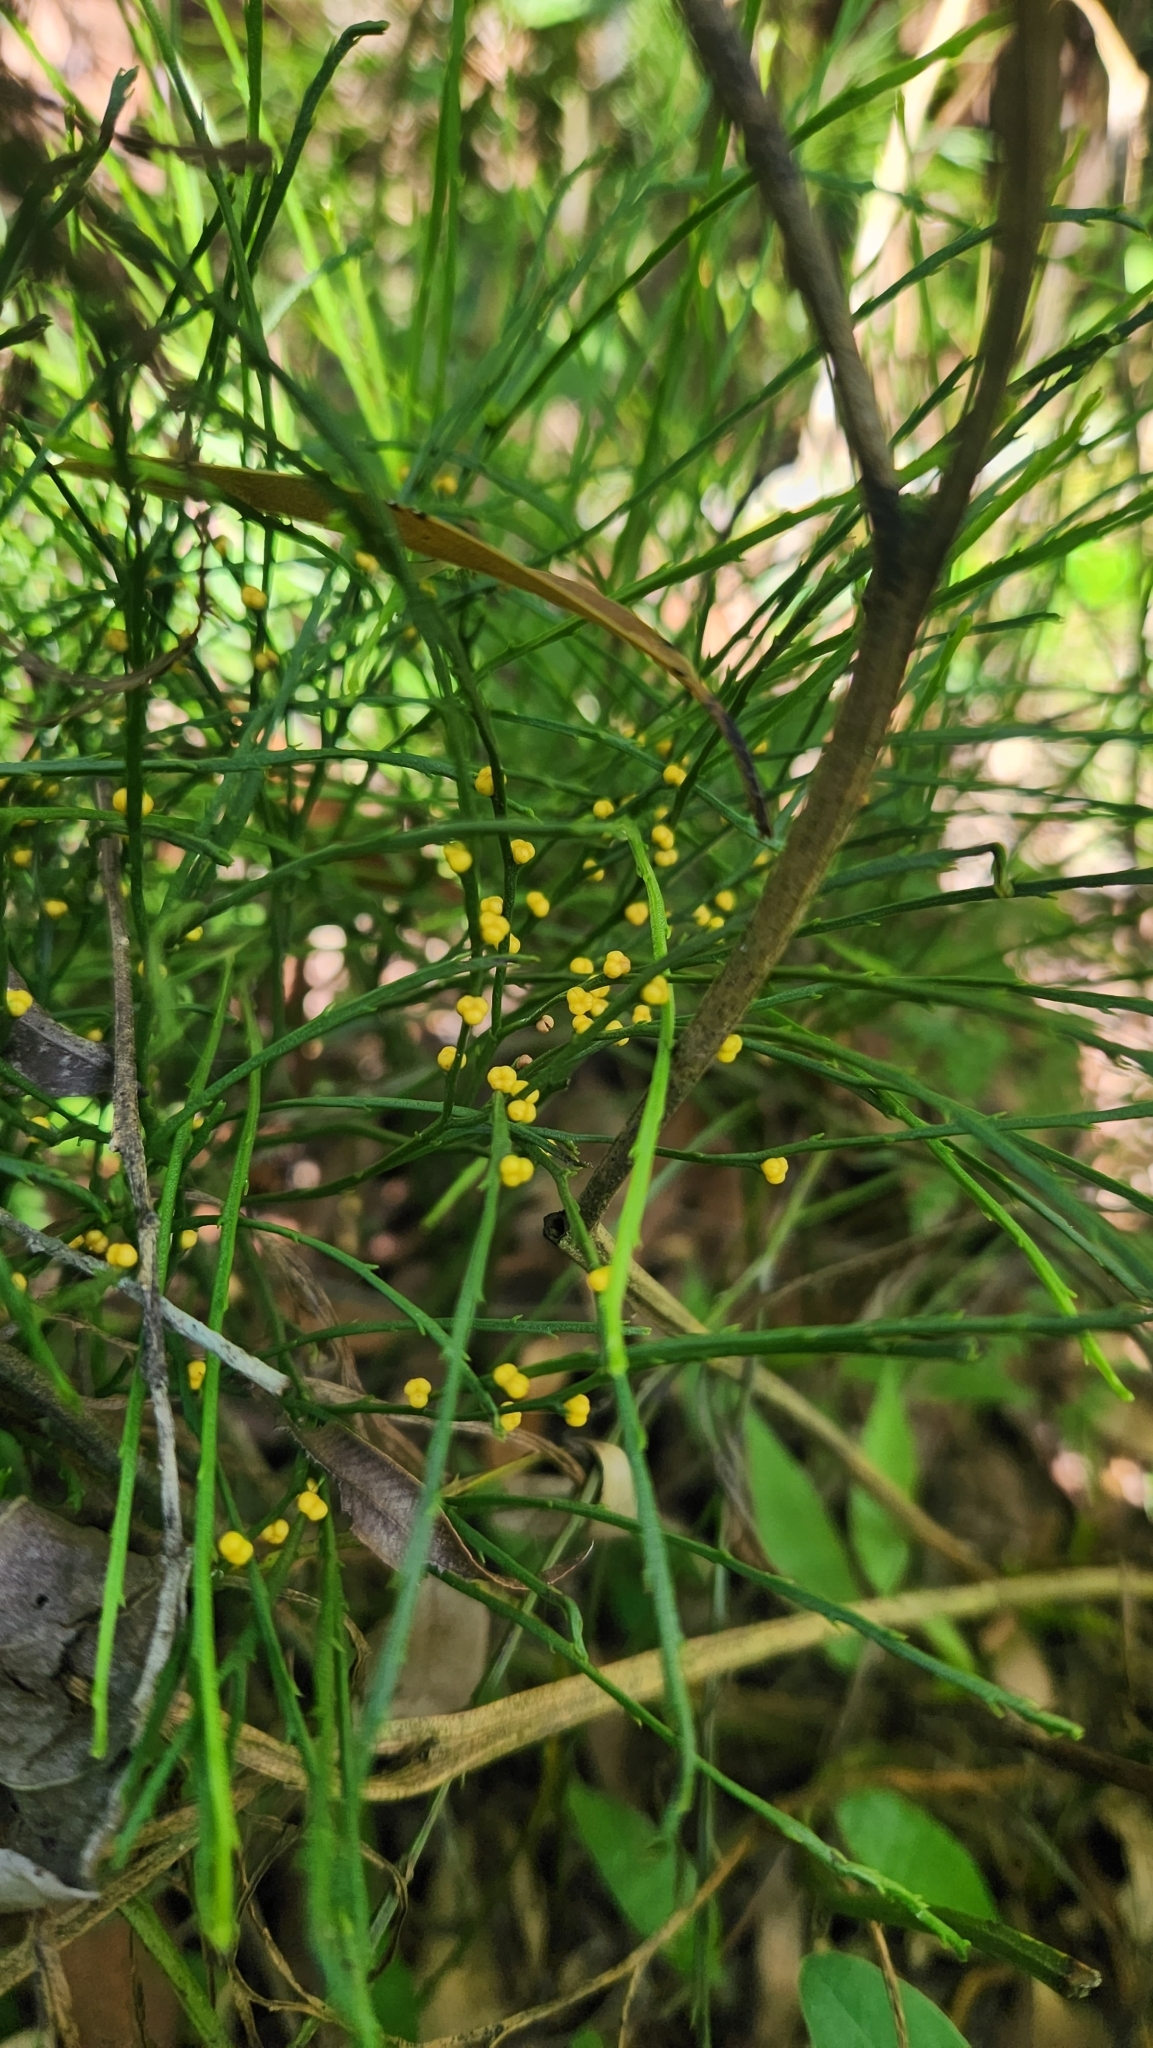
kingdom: Plantae
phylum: Tracheophyta
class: Polypodiopsida
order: Psilotales
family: Psilotaceae
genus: Psilotum
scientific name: Psilotum nudum
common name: Skeleton fork fern
